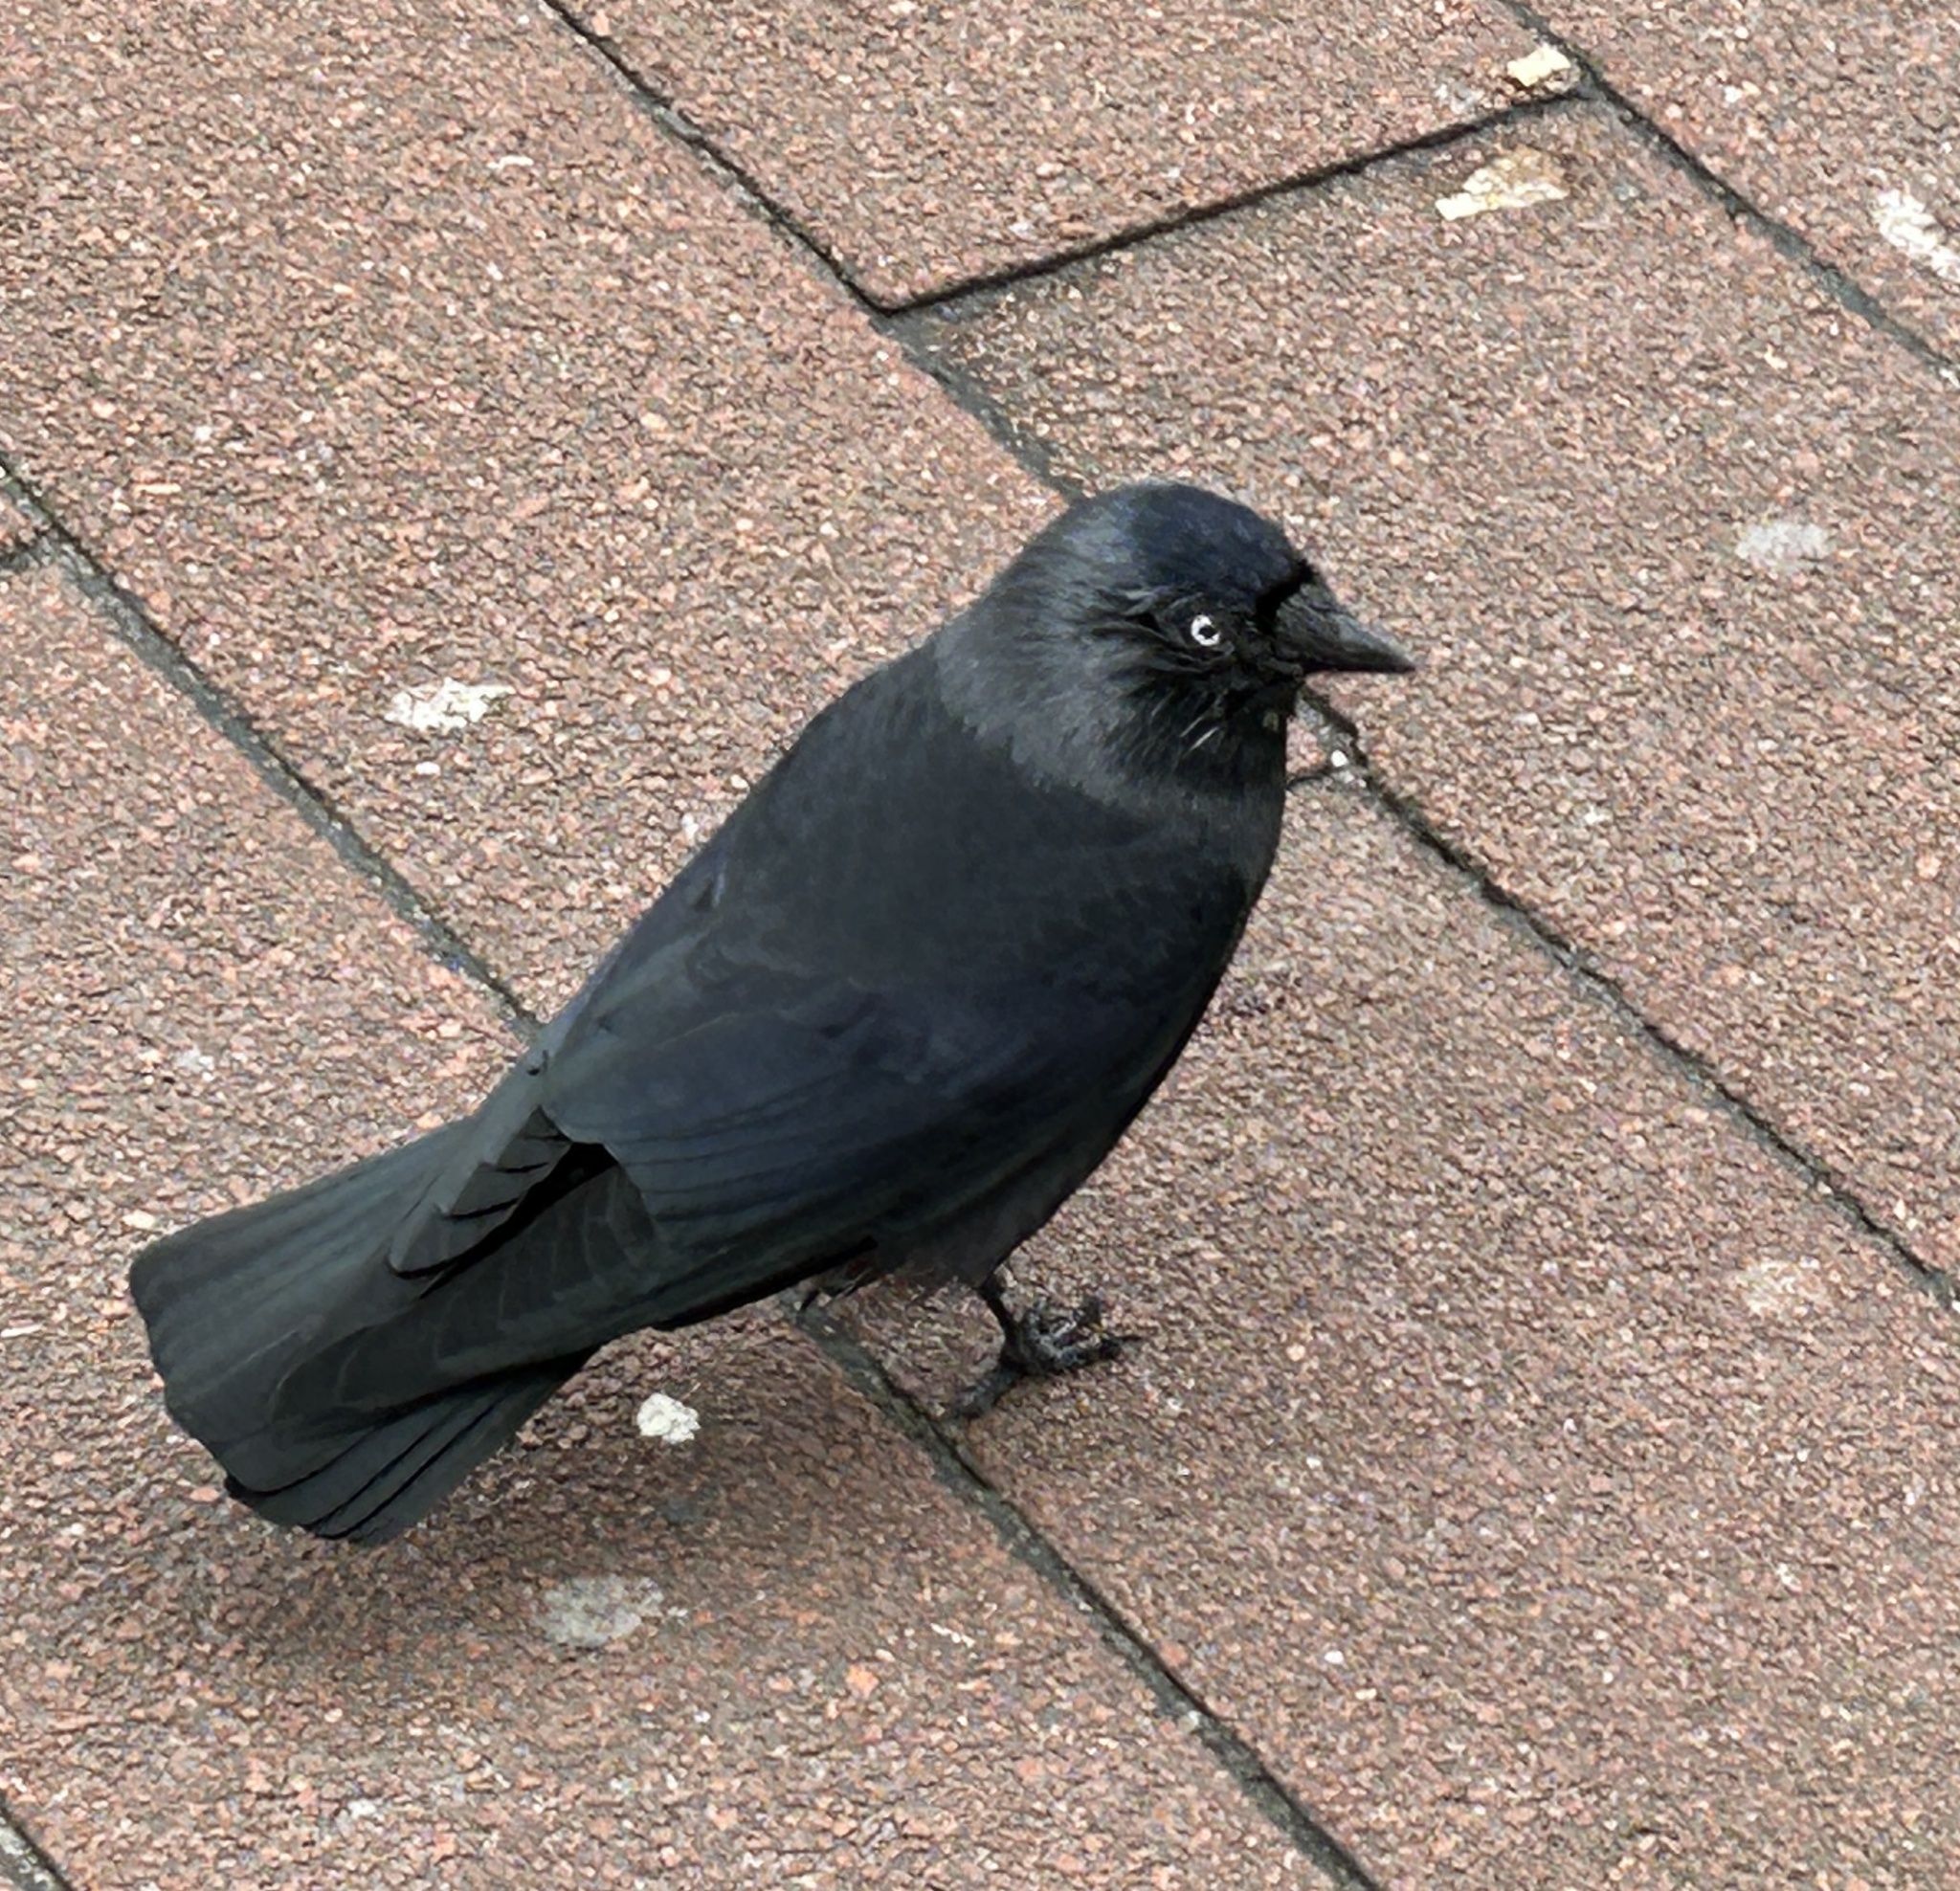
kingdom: Animalia
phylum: Chordata
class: Aves
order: Passeriformes
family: Corvidae
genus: Coloeus
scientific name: Coloeus monedula
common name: Western jackdaw
